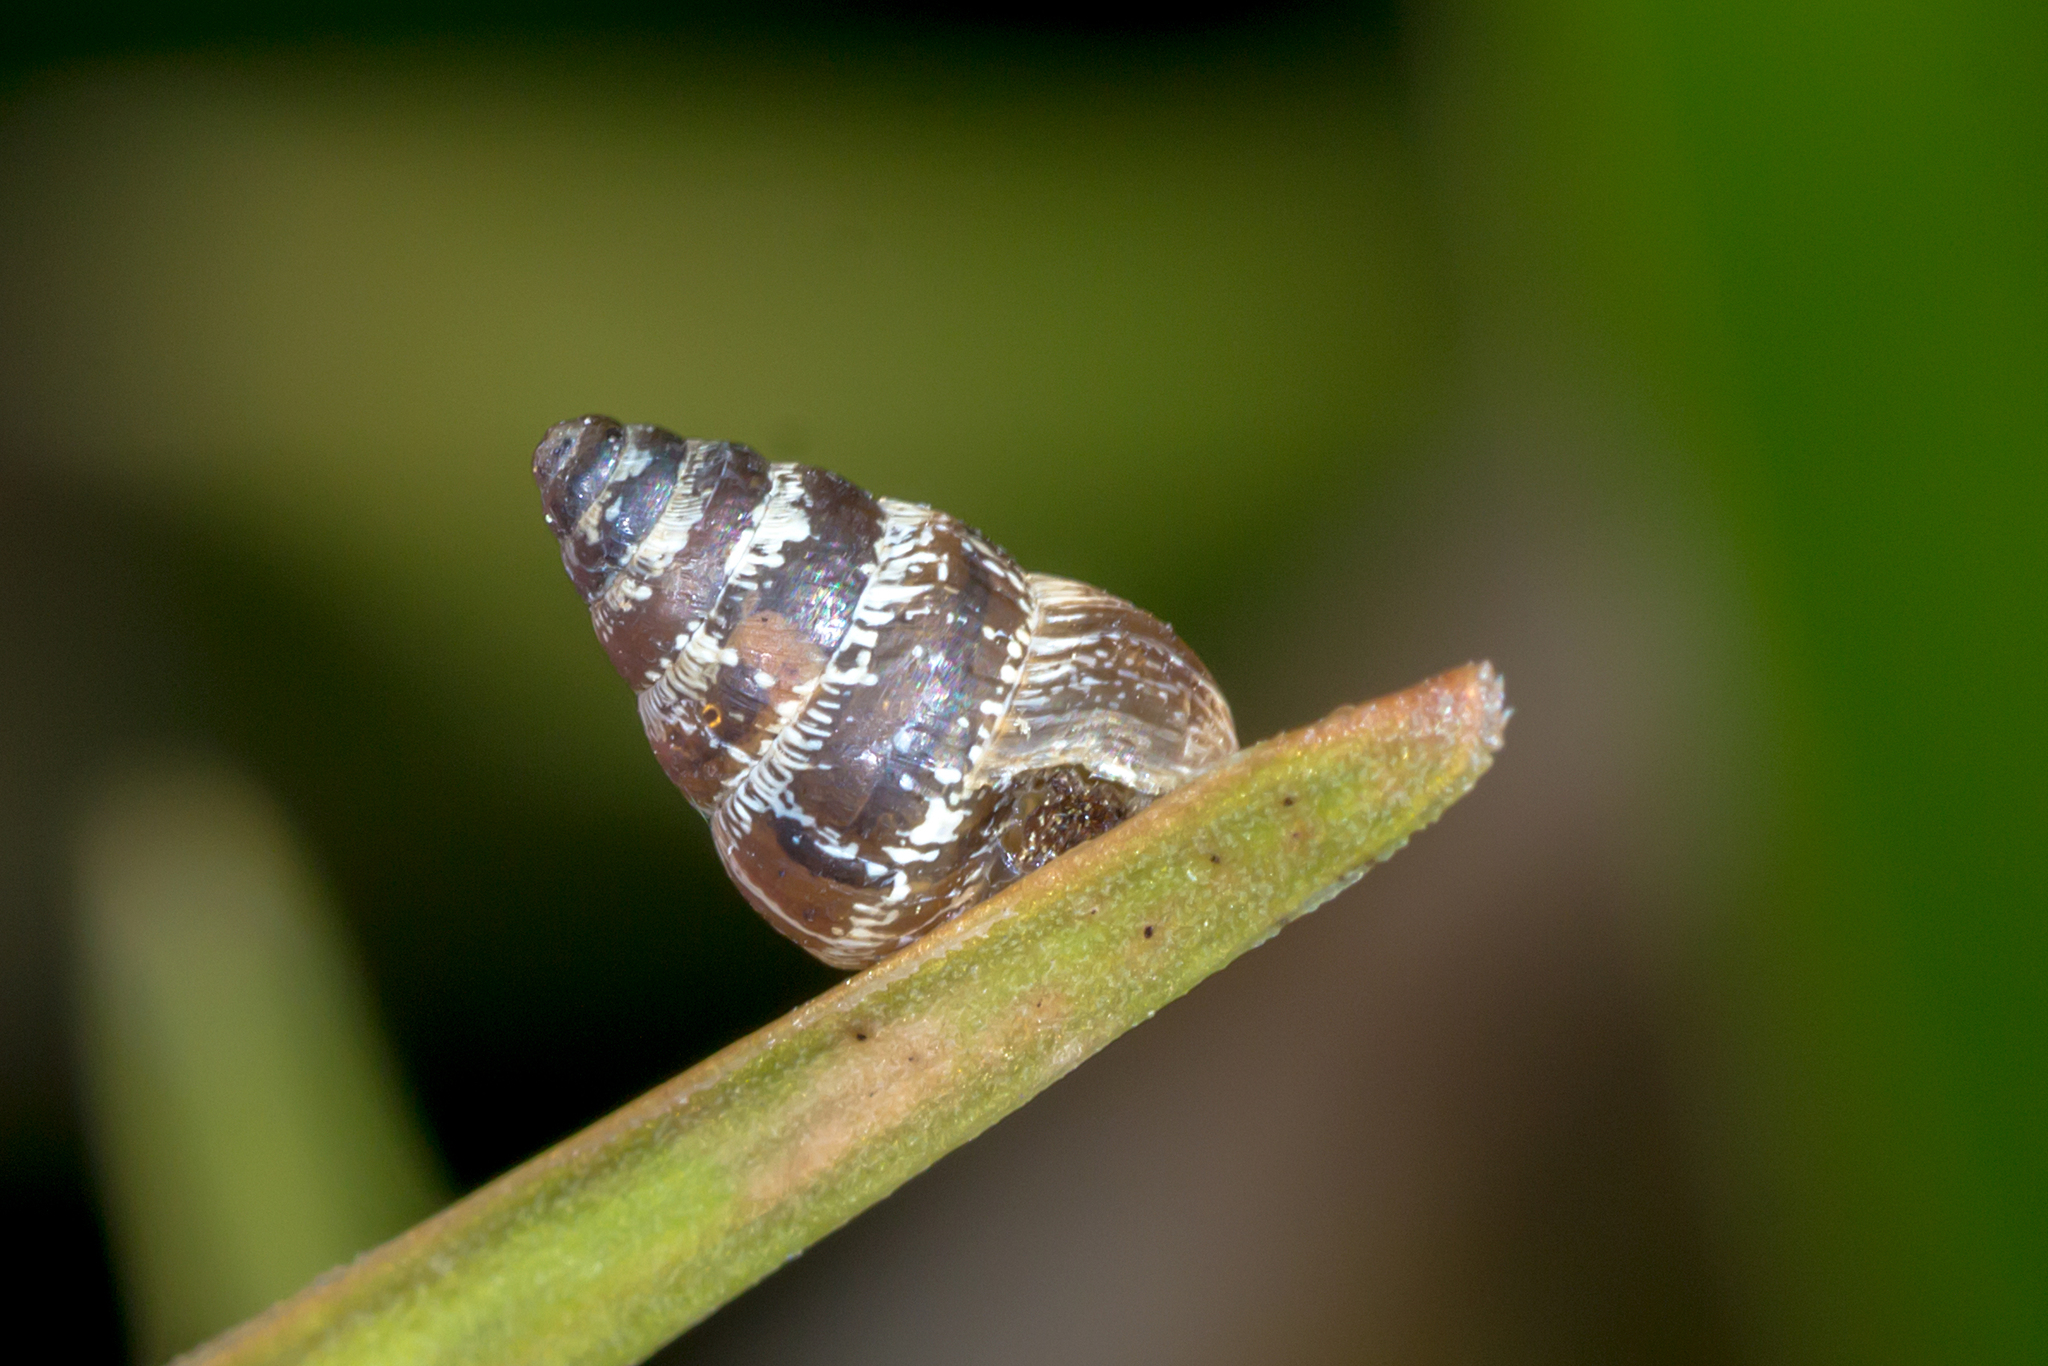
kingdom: Animalia
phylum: Mollusca
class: Gastropoda
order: Stylommatophora
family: Geomitridae
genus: Cochlicella
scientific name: Cochlicella barbara
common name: Potbellied helicellid
